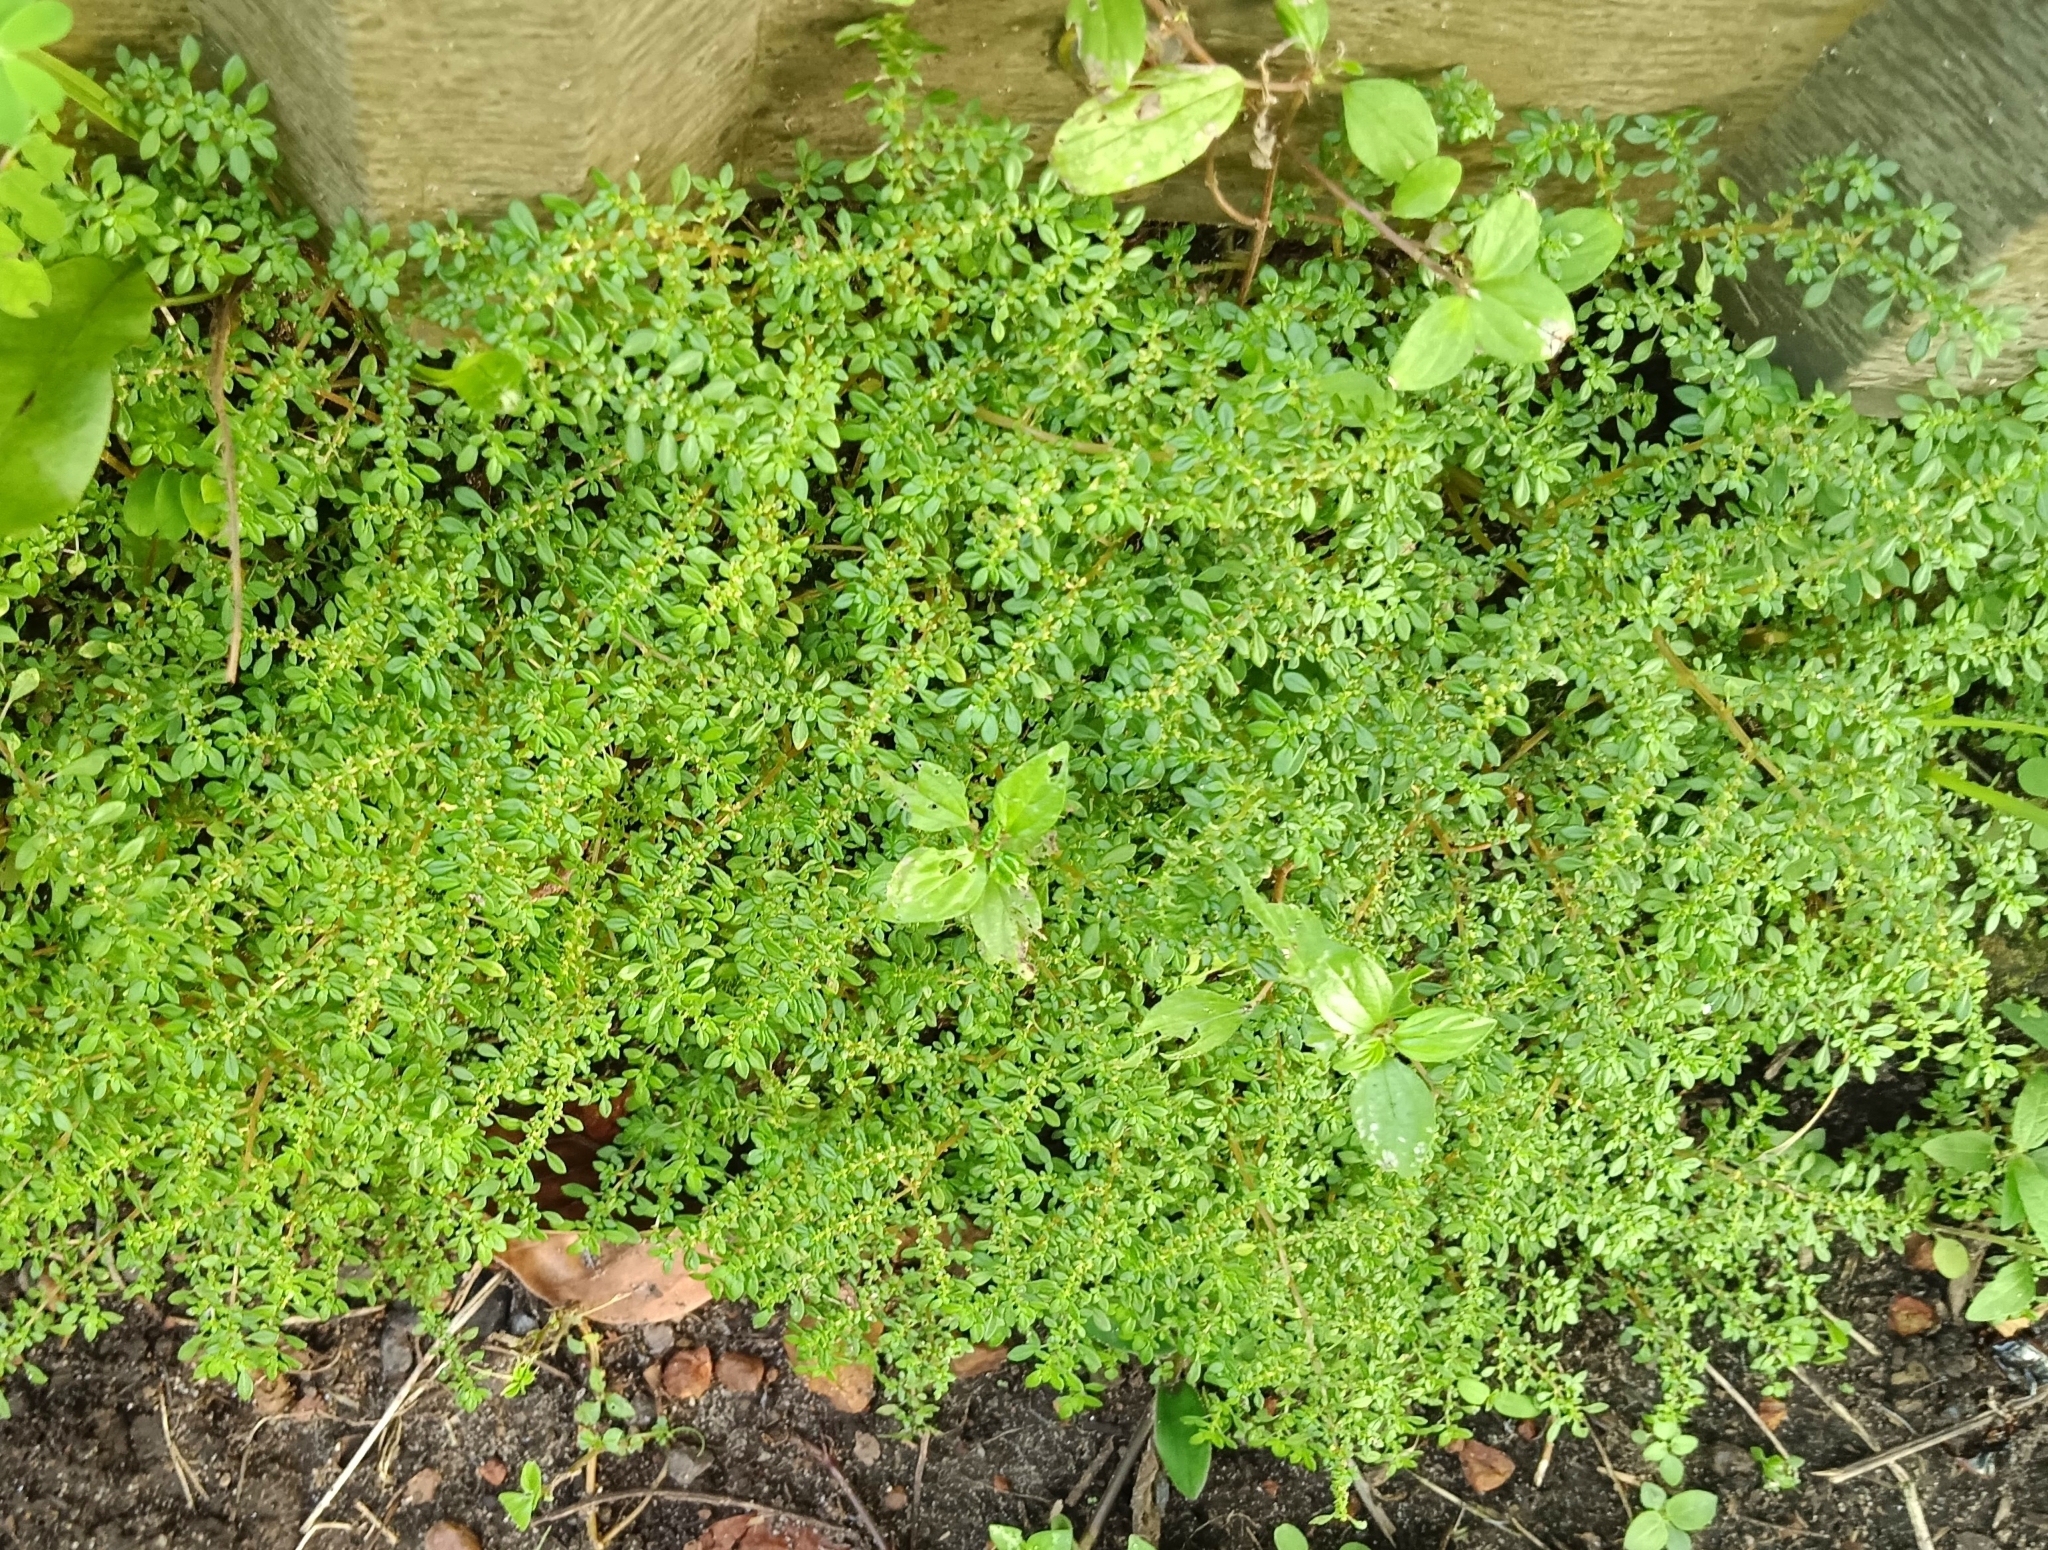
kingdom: Plantae
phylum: Tracheophyta
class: Magnoliopsida
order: Rosales
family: Urticaceae
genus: Pilea
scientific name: Pilea microphylla
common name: Artillery-plant
